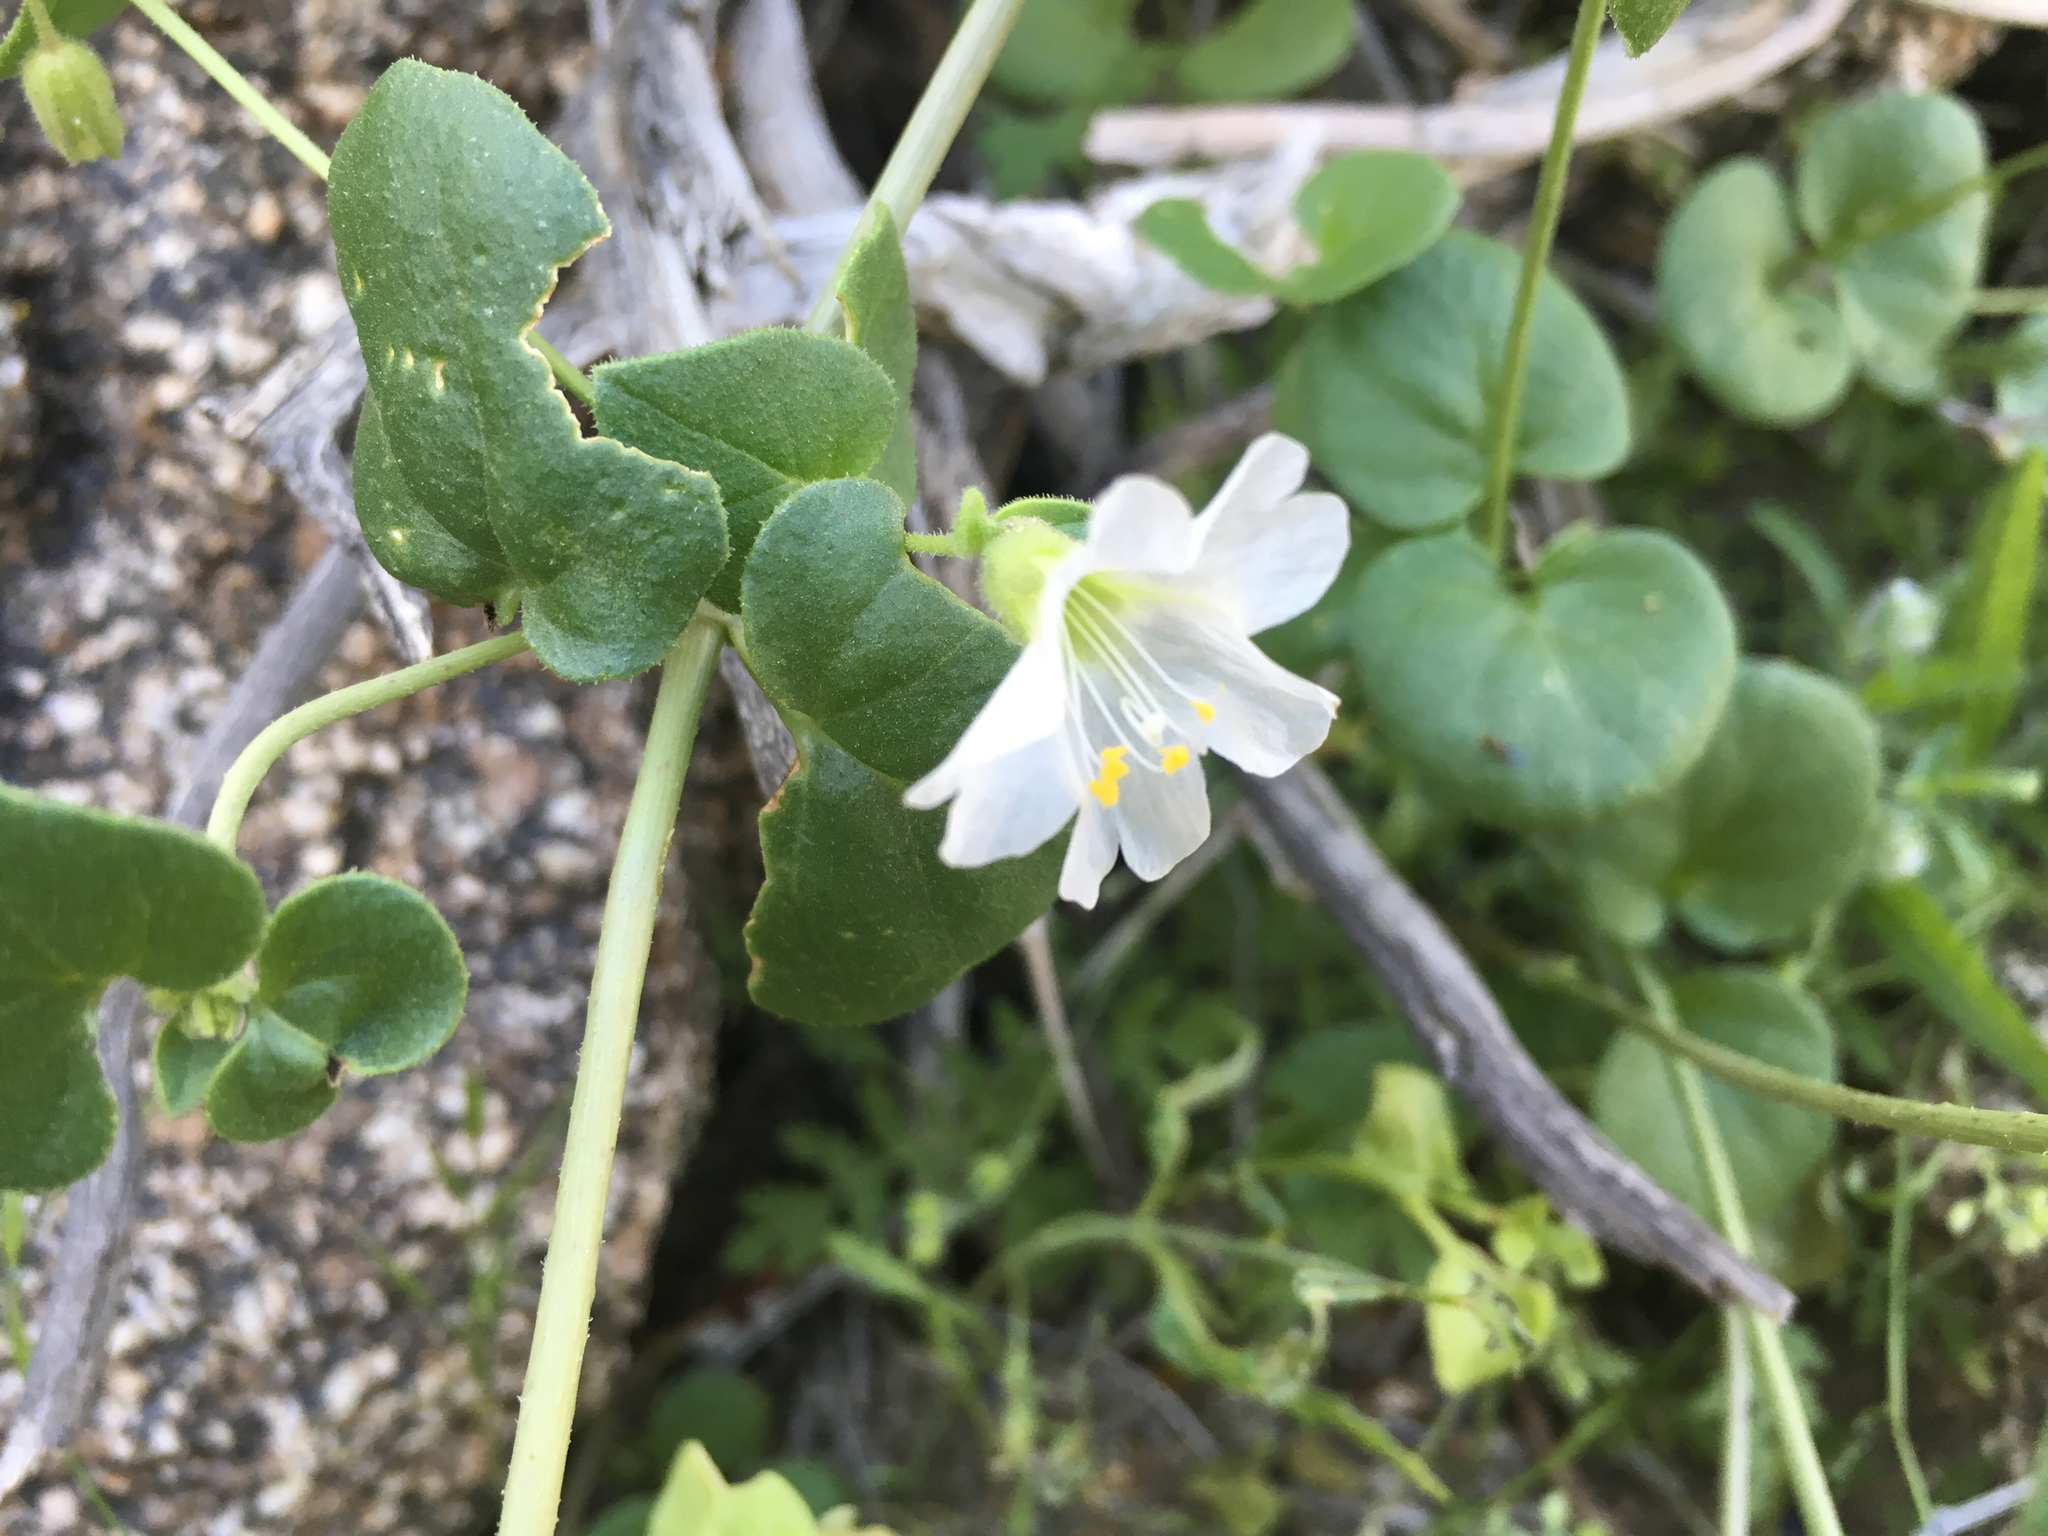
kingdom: Plantae
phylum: Tracheophyta
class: Magnoliopsida
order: Caryophyllales
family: Nyctaginaceae
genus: Mirabilis
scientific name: Mirabilis laevis
